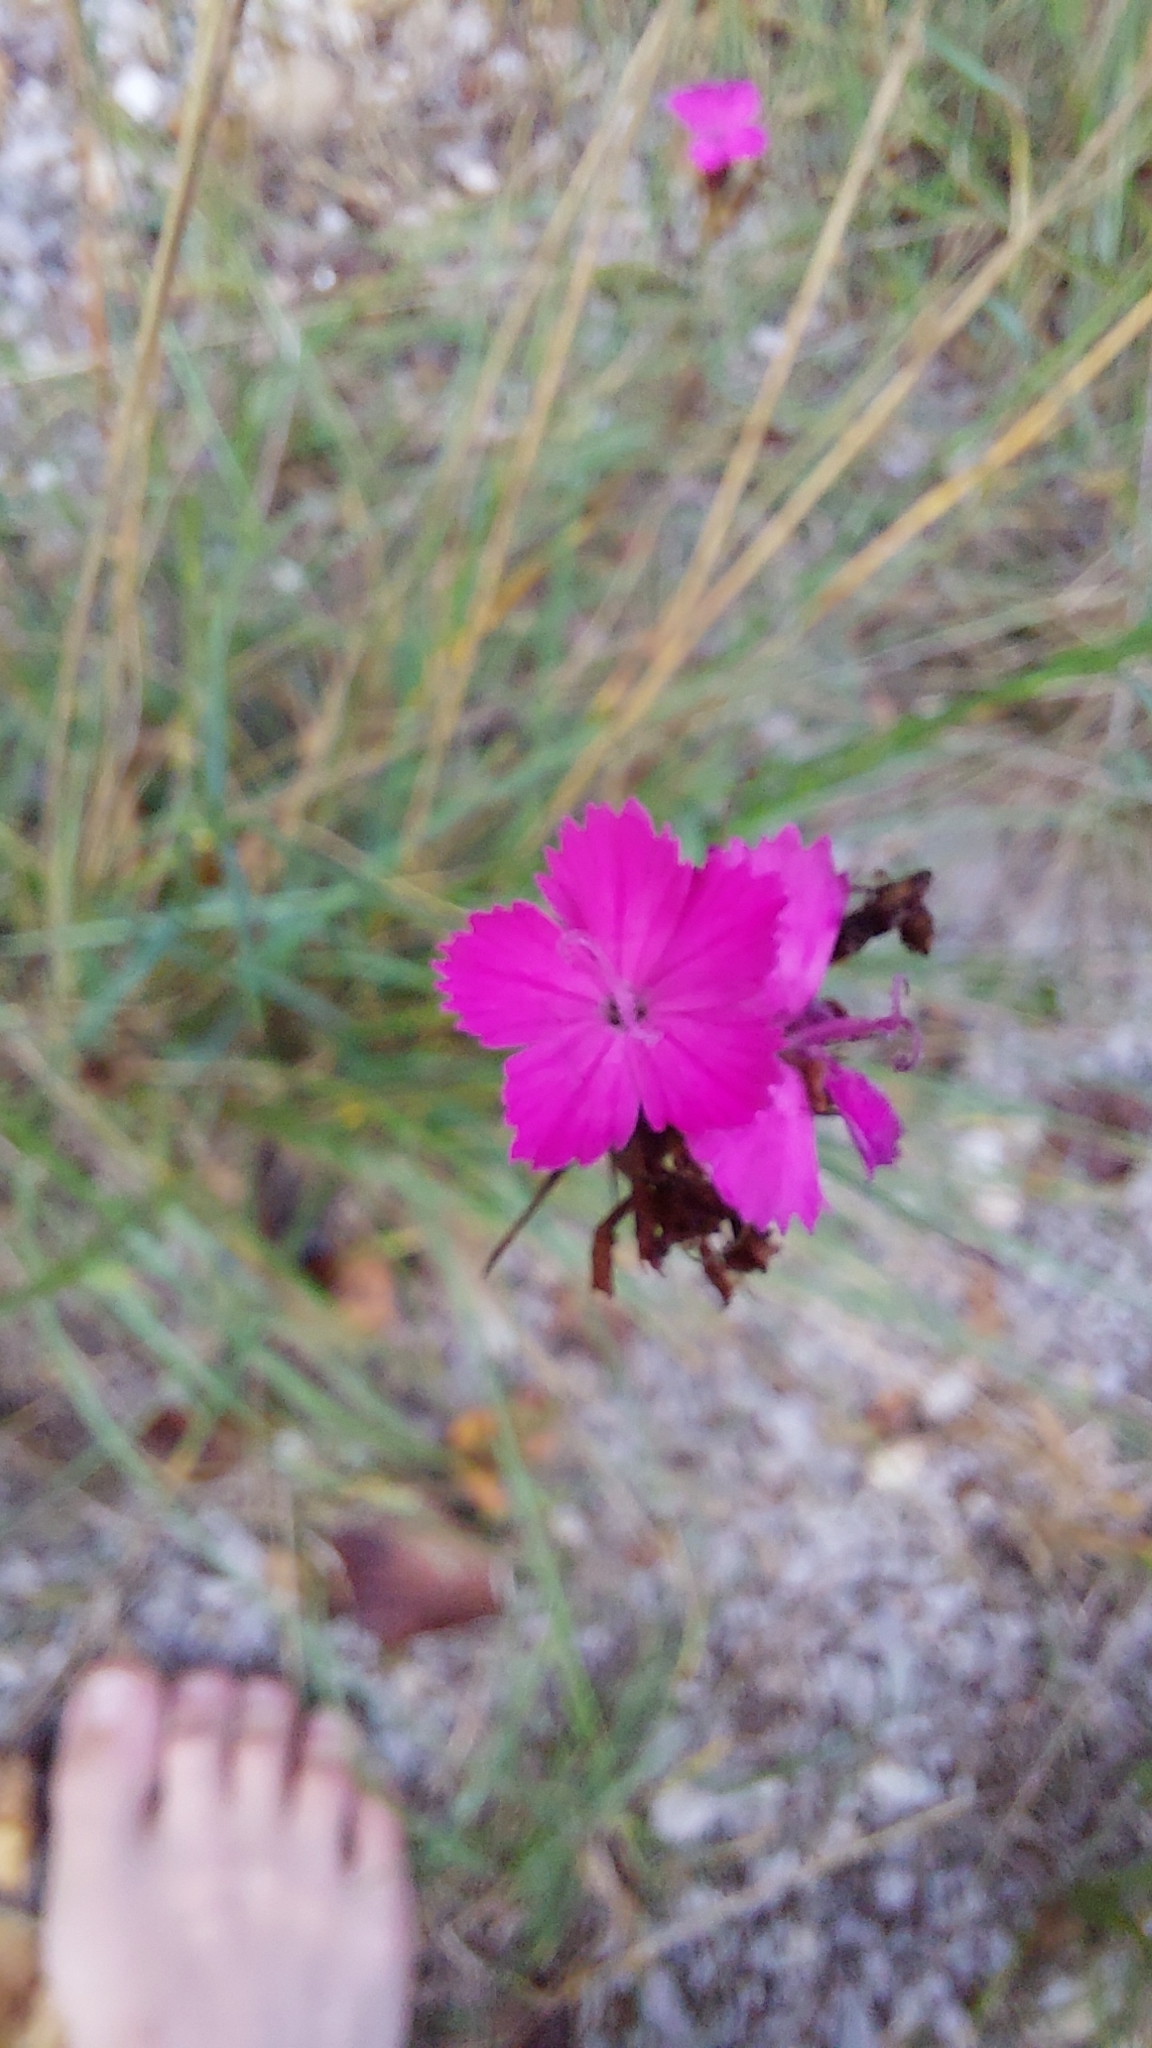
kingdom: Plantae
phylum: Tracheophyta
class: Magnoliopsida
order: Caryophyllales
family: Caryophyllaceae
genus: Dianthus
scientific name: Dianthus carthusianorum
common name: Carthusian pink
